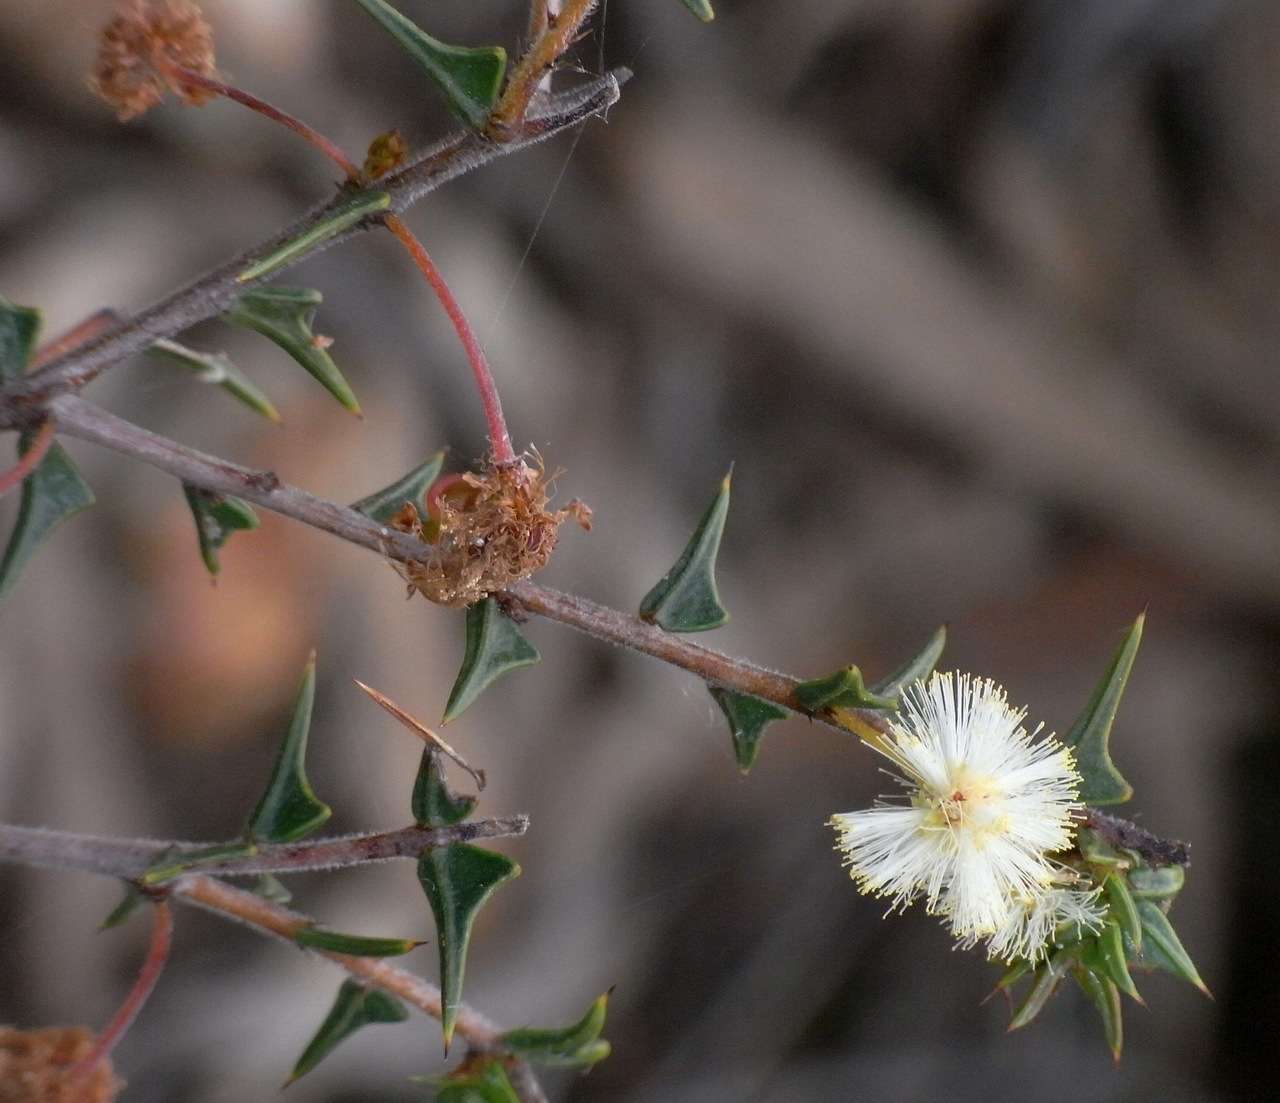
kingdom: Plantae
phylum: Tracheophyta
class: Magnoliopsida
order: Fabales
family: Fabaceae
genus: Acacia
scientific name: Acacia gunnii
